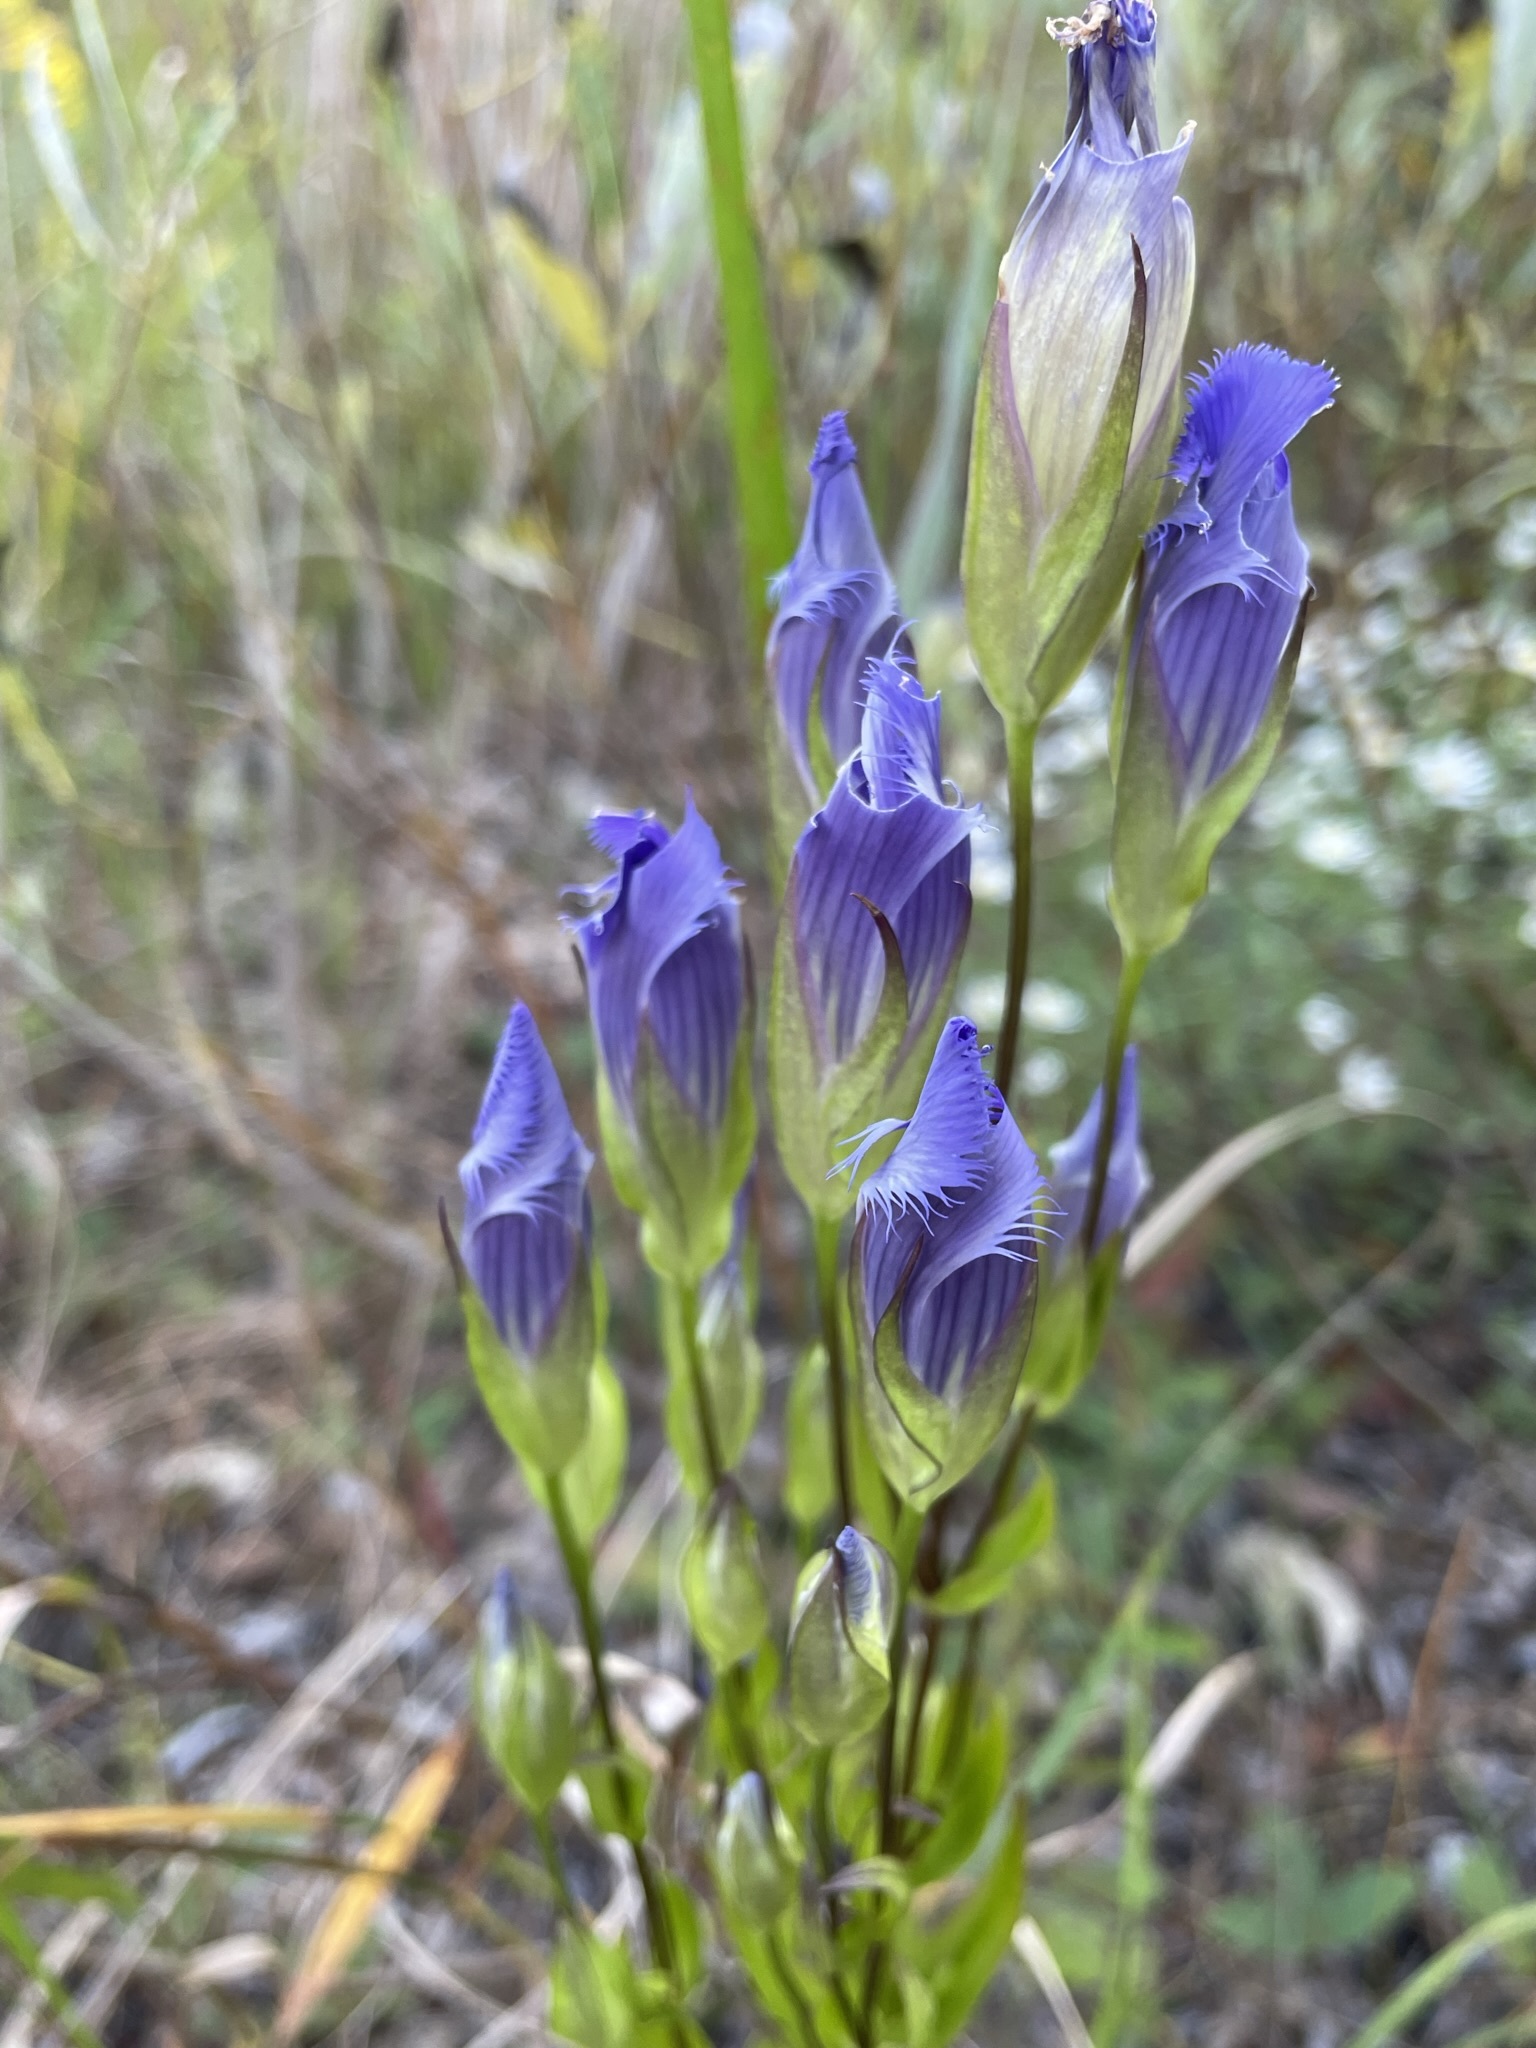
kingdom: Plantae
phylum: Tracheophyta
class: Magnoliopsida
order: Gentianales
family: Gentianaceae
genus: Gentianopsis
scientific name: Gentianopsis crinita
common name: Fringed-gentian
